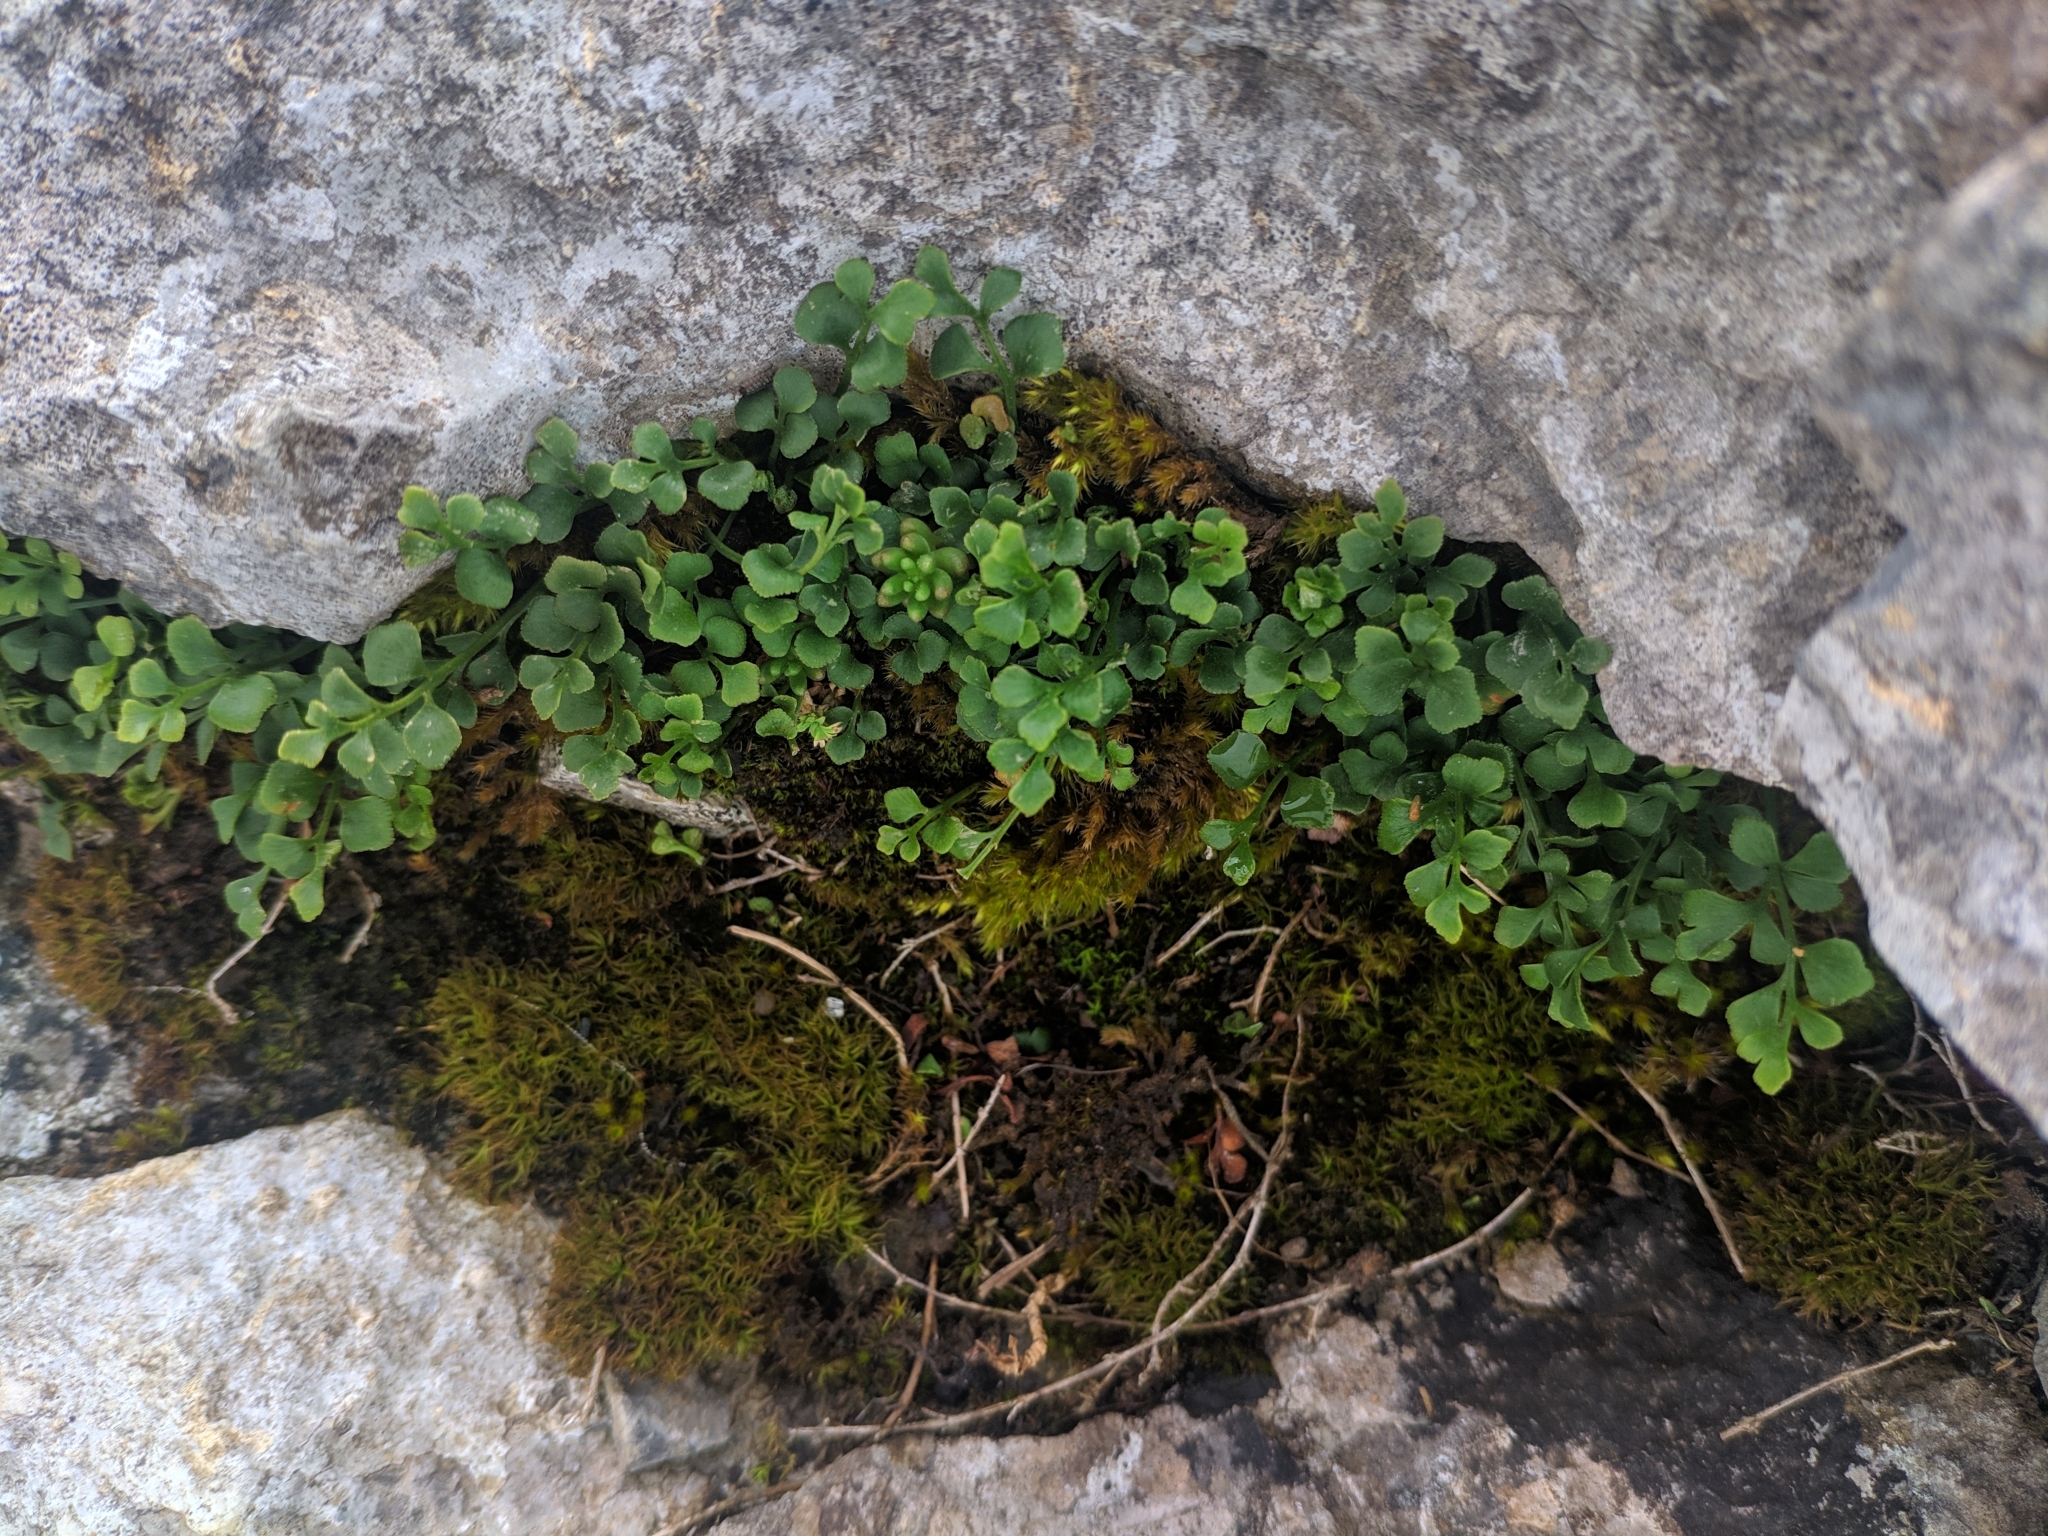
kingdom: Plantae
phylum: Tracheophyta
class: Polypodiopsida
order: Polypodiales
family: Aspleniaceae
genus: Asplenium
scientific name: Asplenium ruta-muraria
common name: Wall-rue
